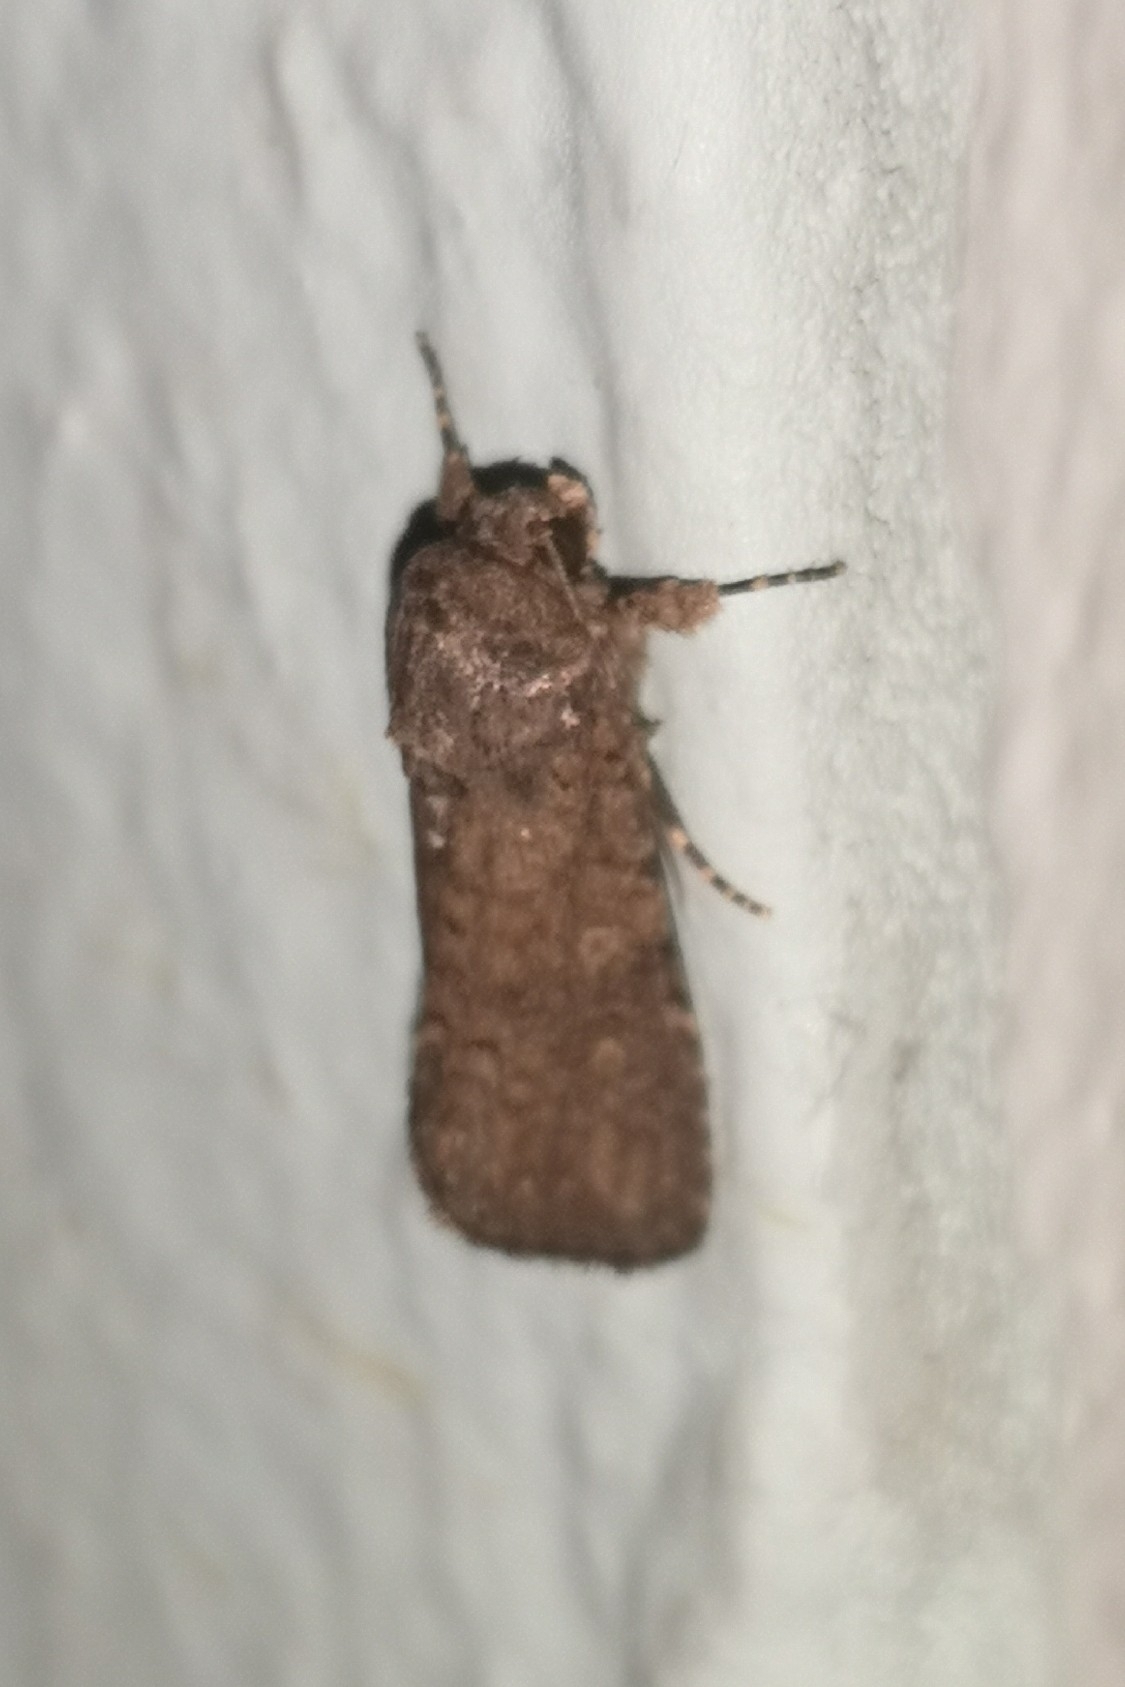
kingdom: Animalia
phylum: Arthropoda
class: Insecta
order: Lepidoptera
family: Noctuidae
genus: Spodoptera
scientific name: Spodoptera cilium
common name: Dark mottled willow
